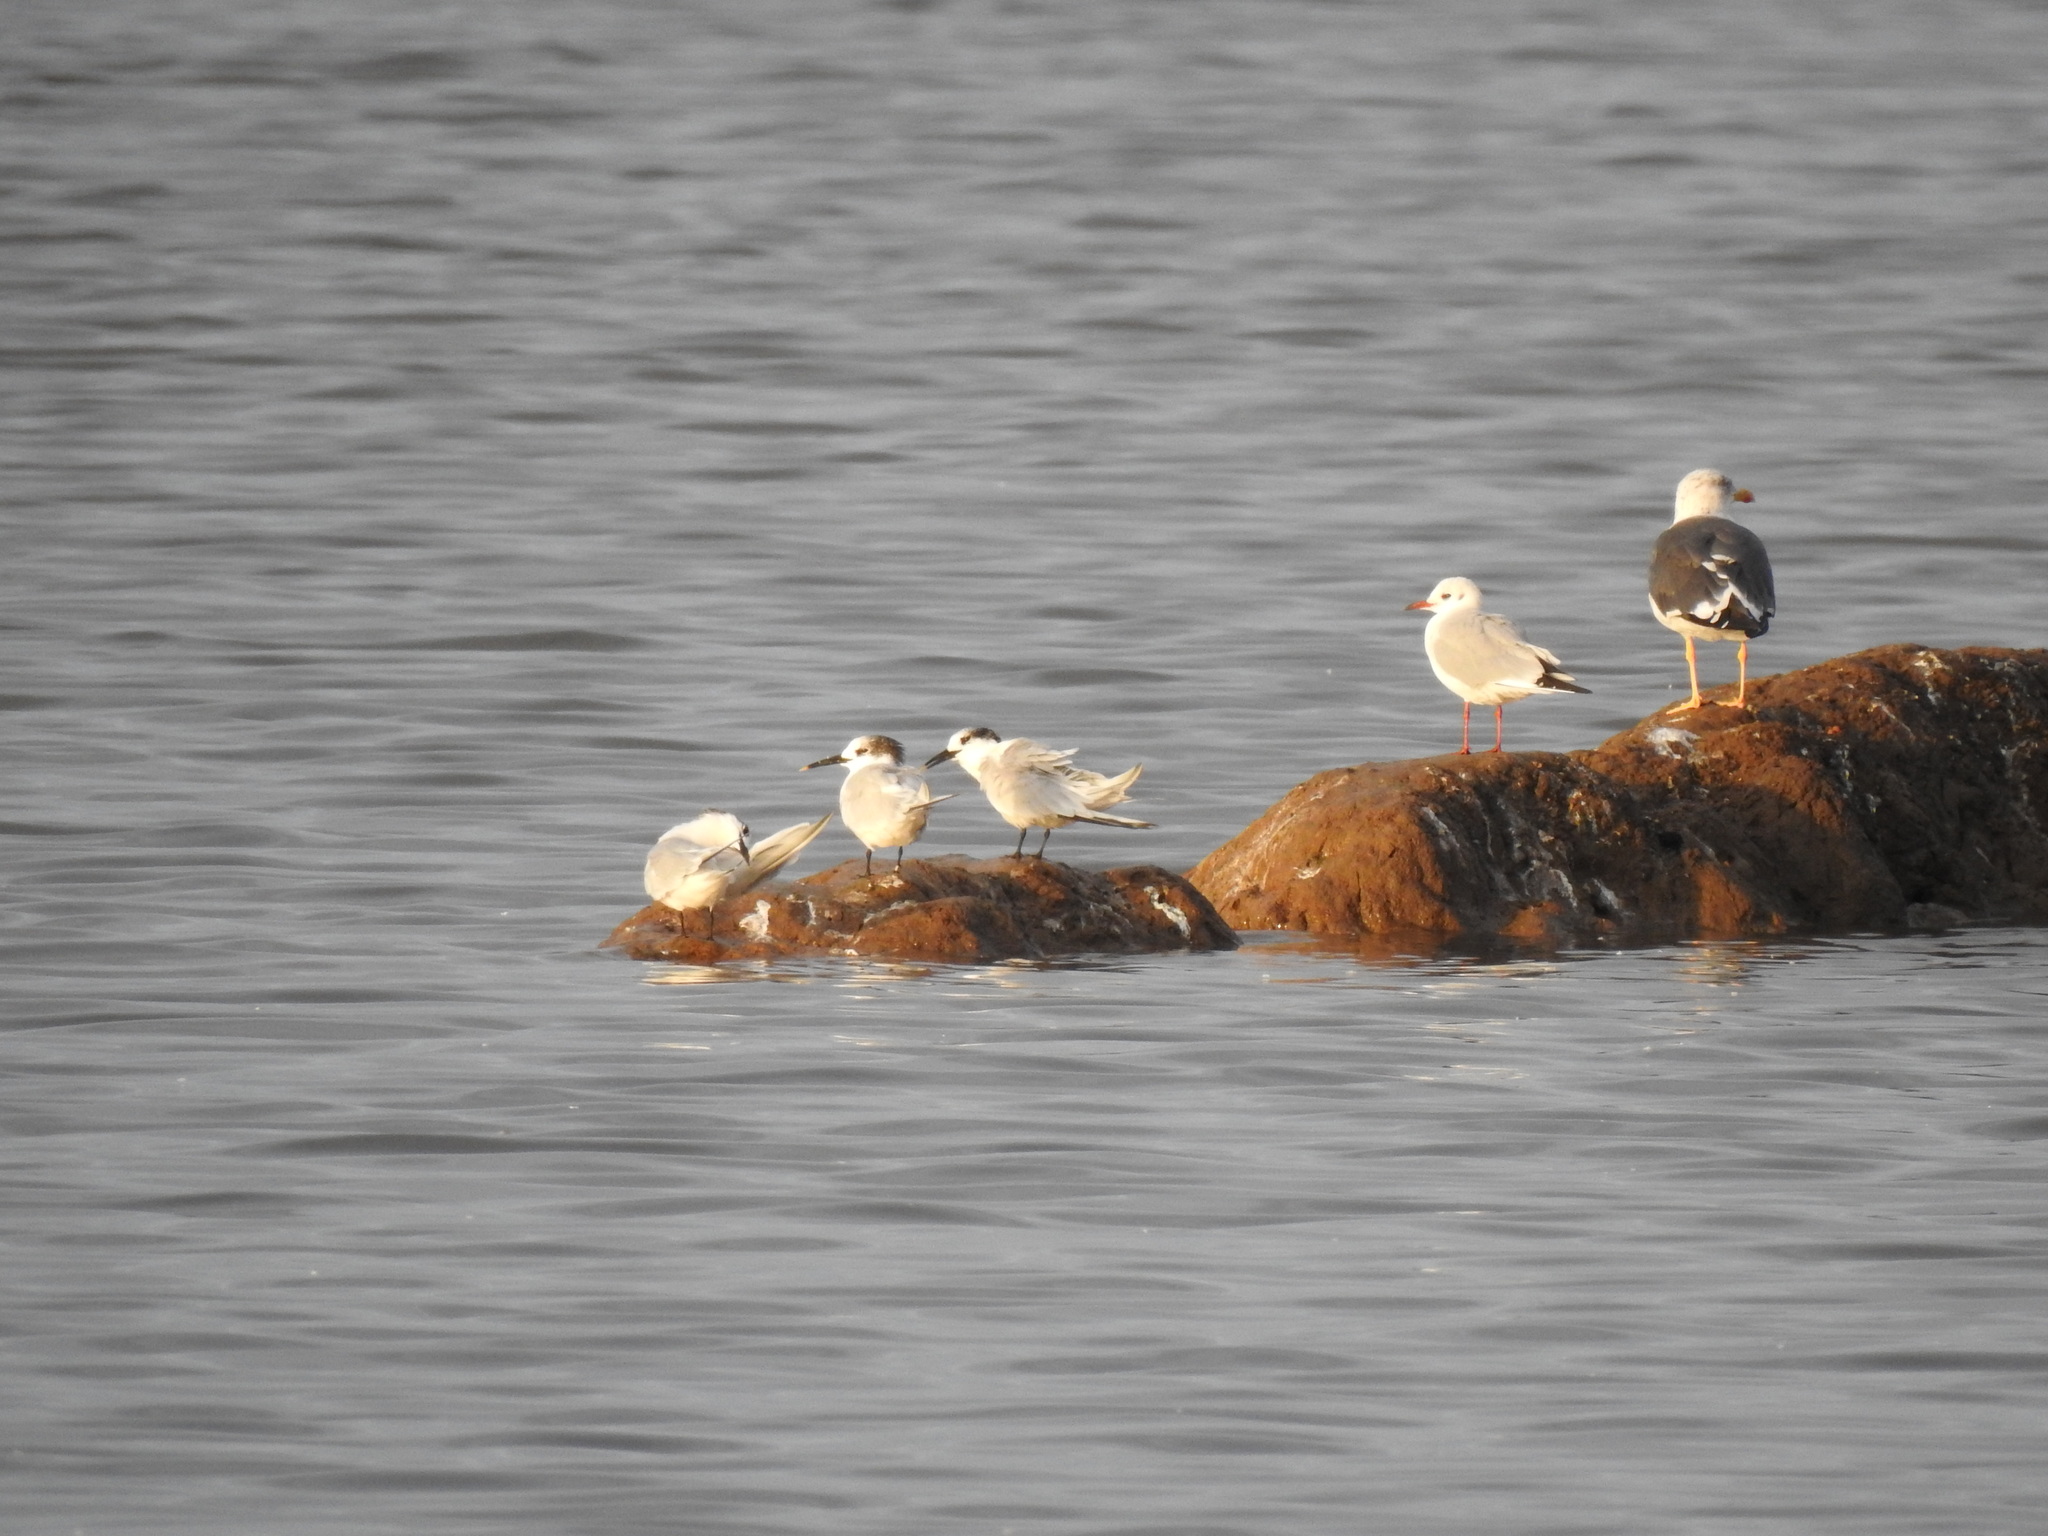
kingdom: Animalia
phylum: Chordata
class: Aves
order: Charadriiformes
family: Laridae
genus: Thalasseus
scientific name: Thalasseus sandvicensis
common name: Sandwich tern
